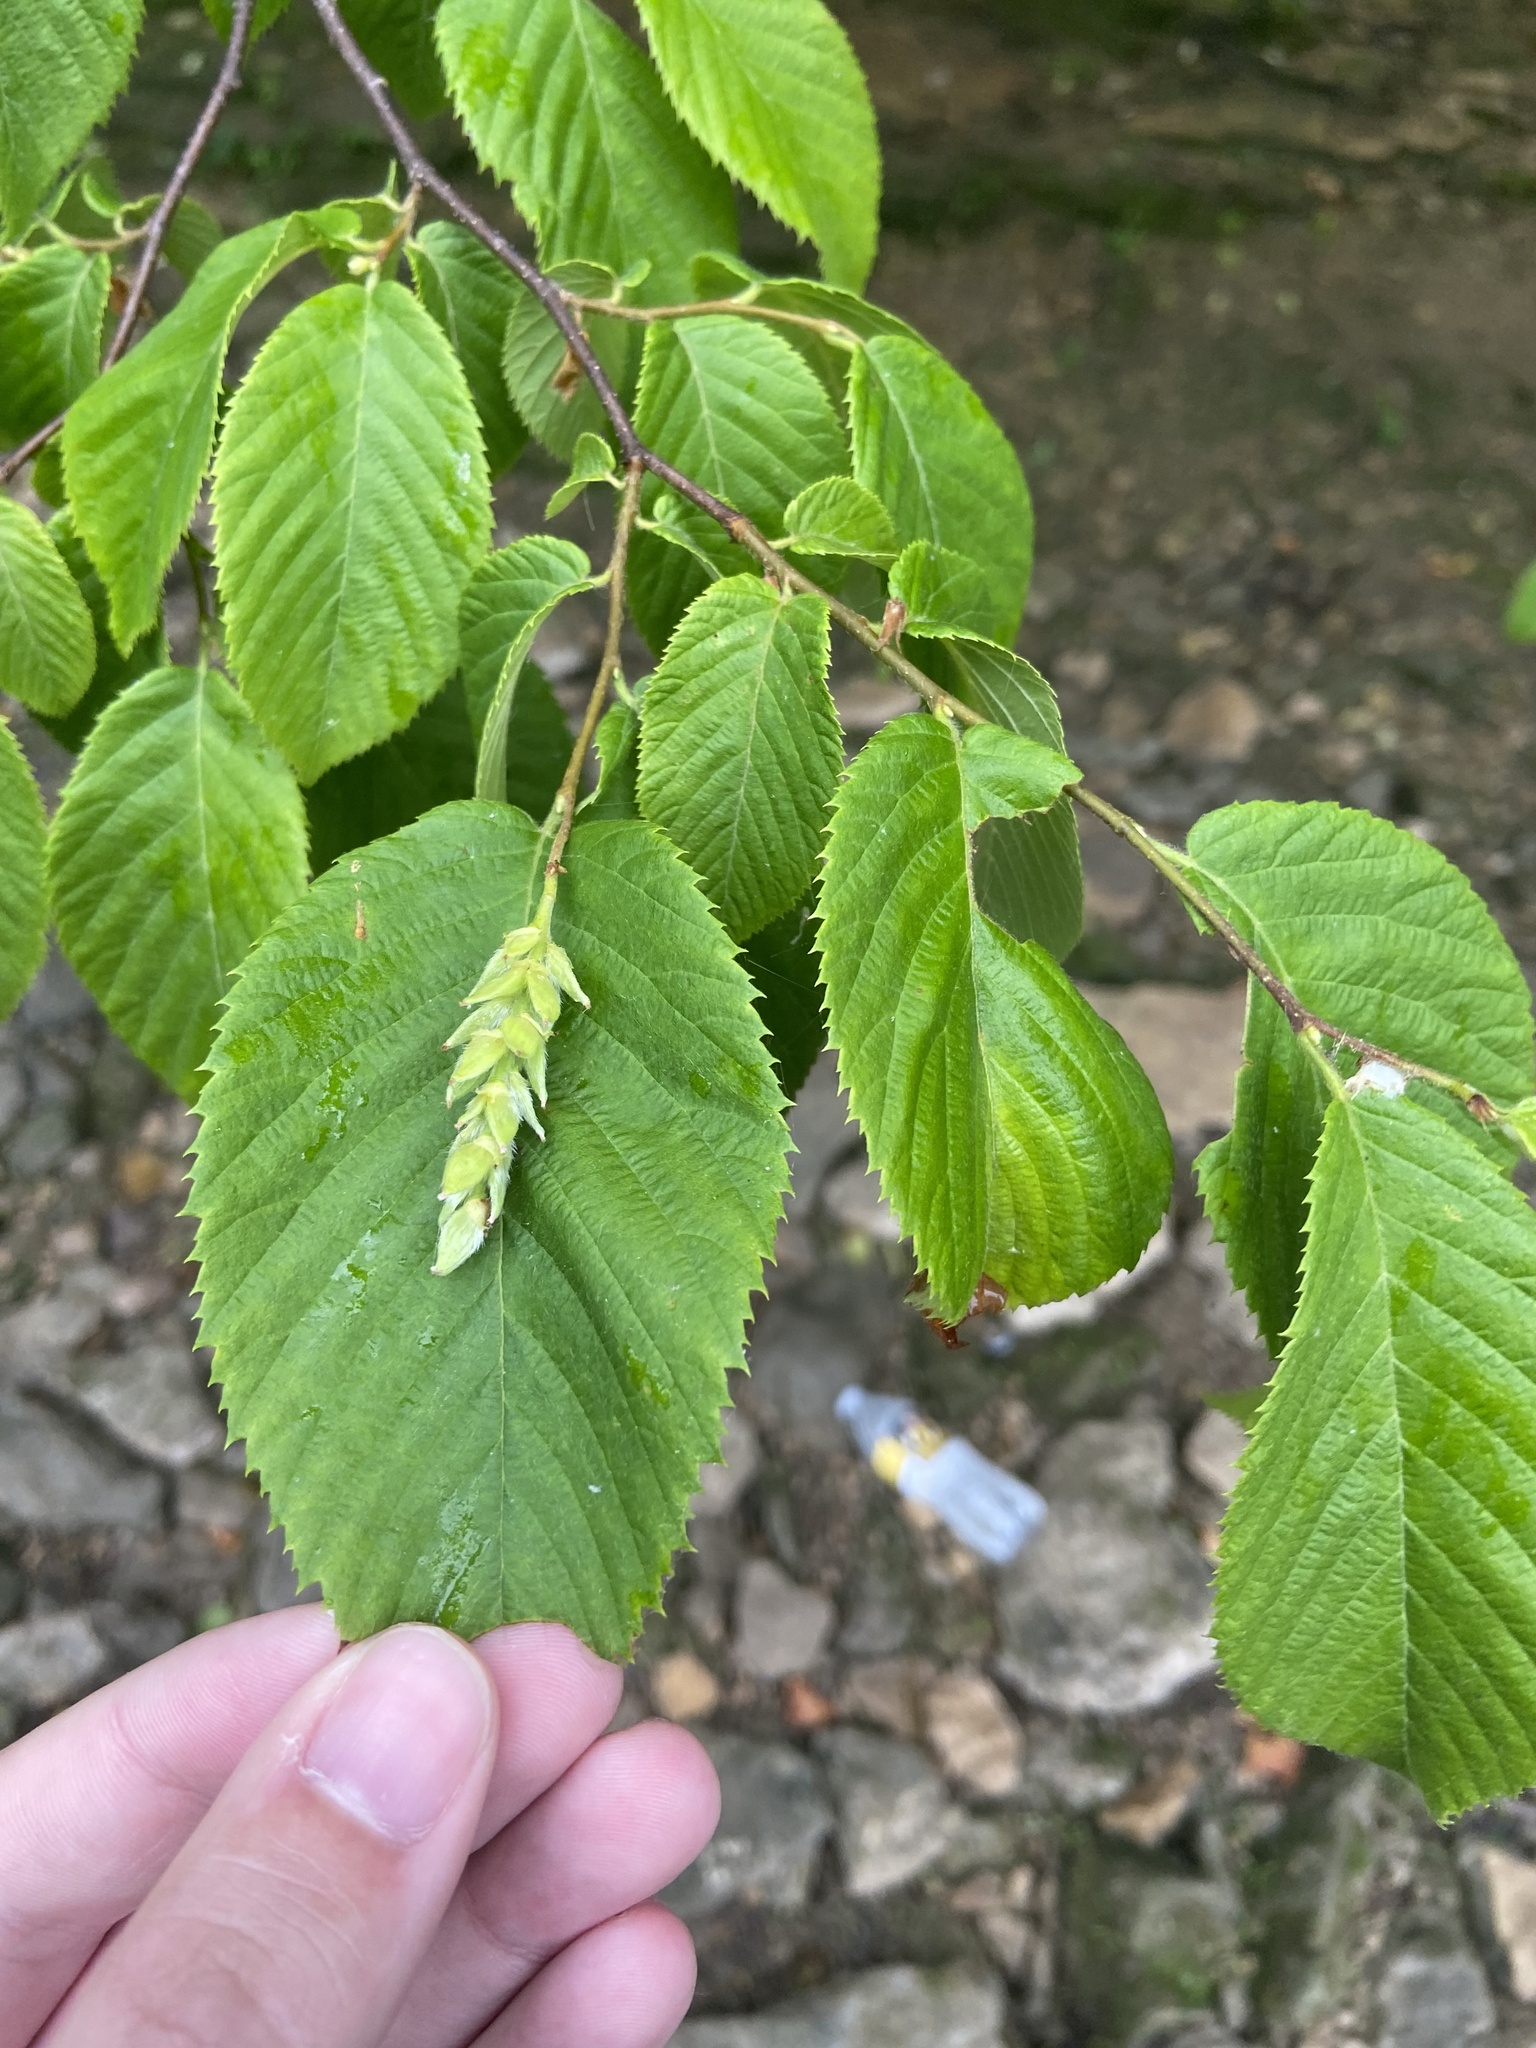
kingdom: Plantae
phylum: Tracheophyta
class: Magnoliopsida
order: Fagales
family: Betulaceae
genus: Ostrya
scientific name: Ostrya virginiana
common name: Ironwood
